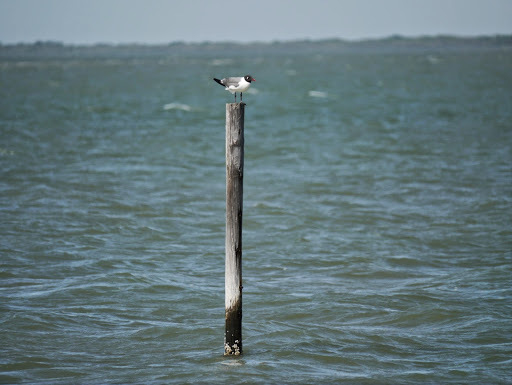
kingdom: Animalia
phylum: Chordata
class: Aves
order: Charadriiformes
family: Laridae
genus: Leucophaeus
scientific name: Leucophaeus atricilla
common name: Laughing gull
